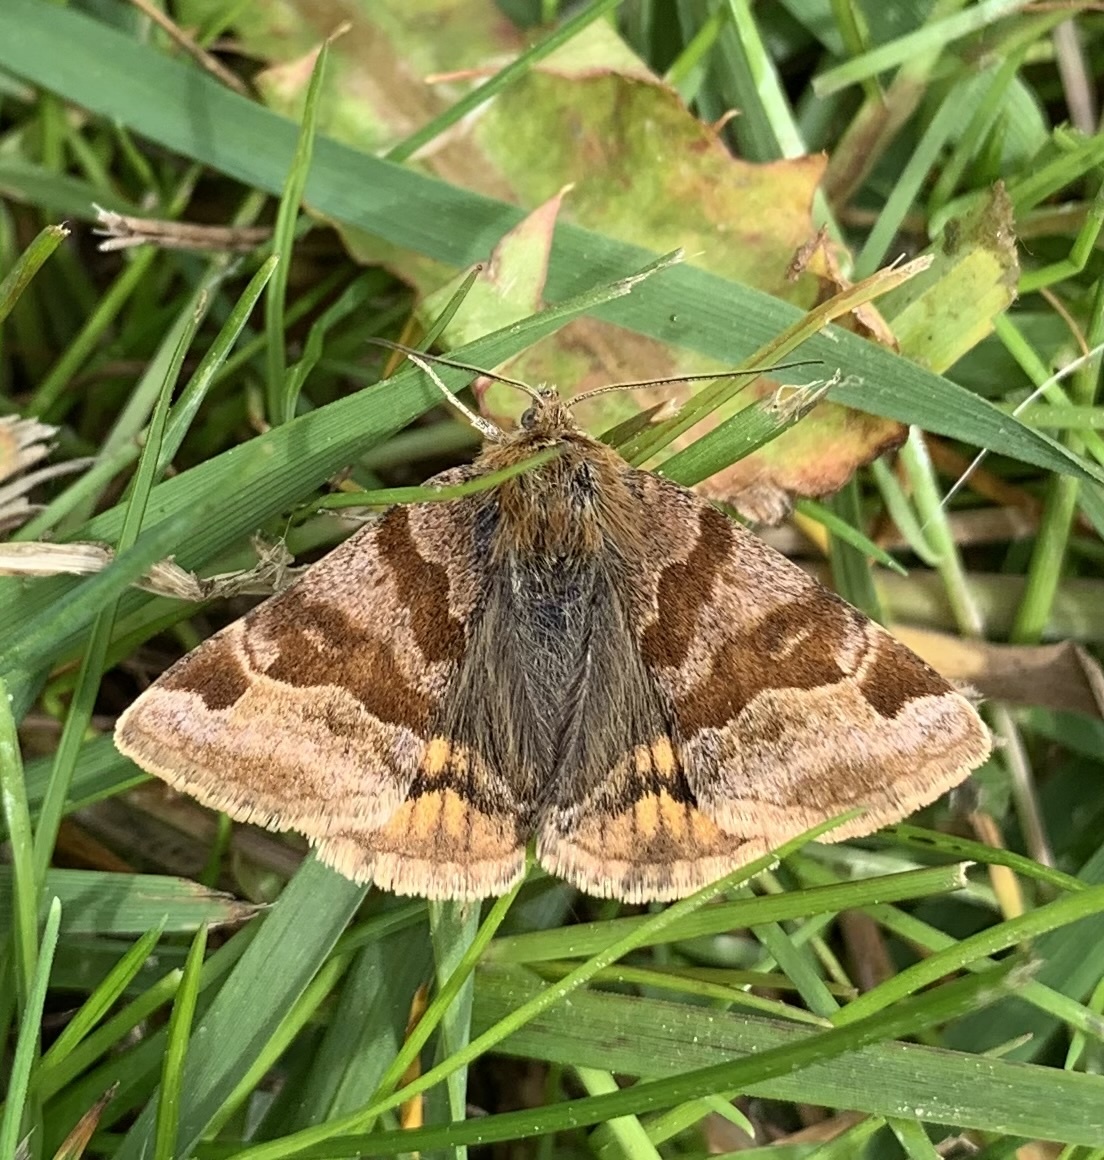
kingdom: Animalia
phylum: Arthropoda
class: Insecta
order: Lepidoptera
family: Erebidae
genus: Euclidia
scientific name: Euclidia glyphica
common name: Burnet companion
